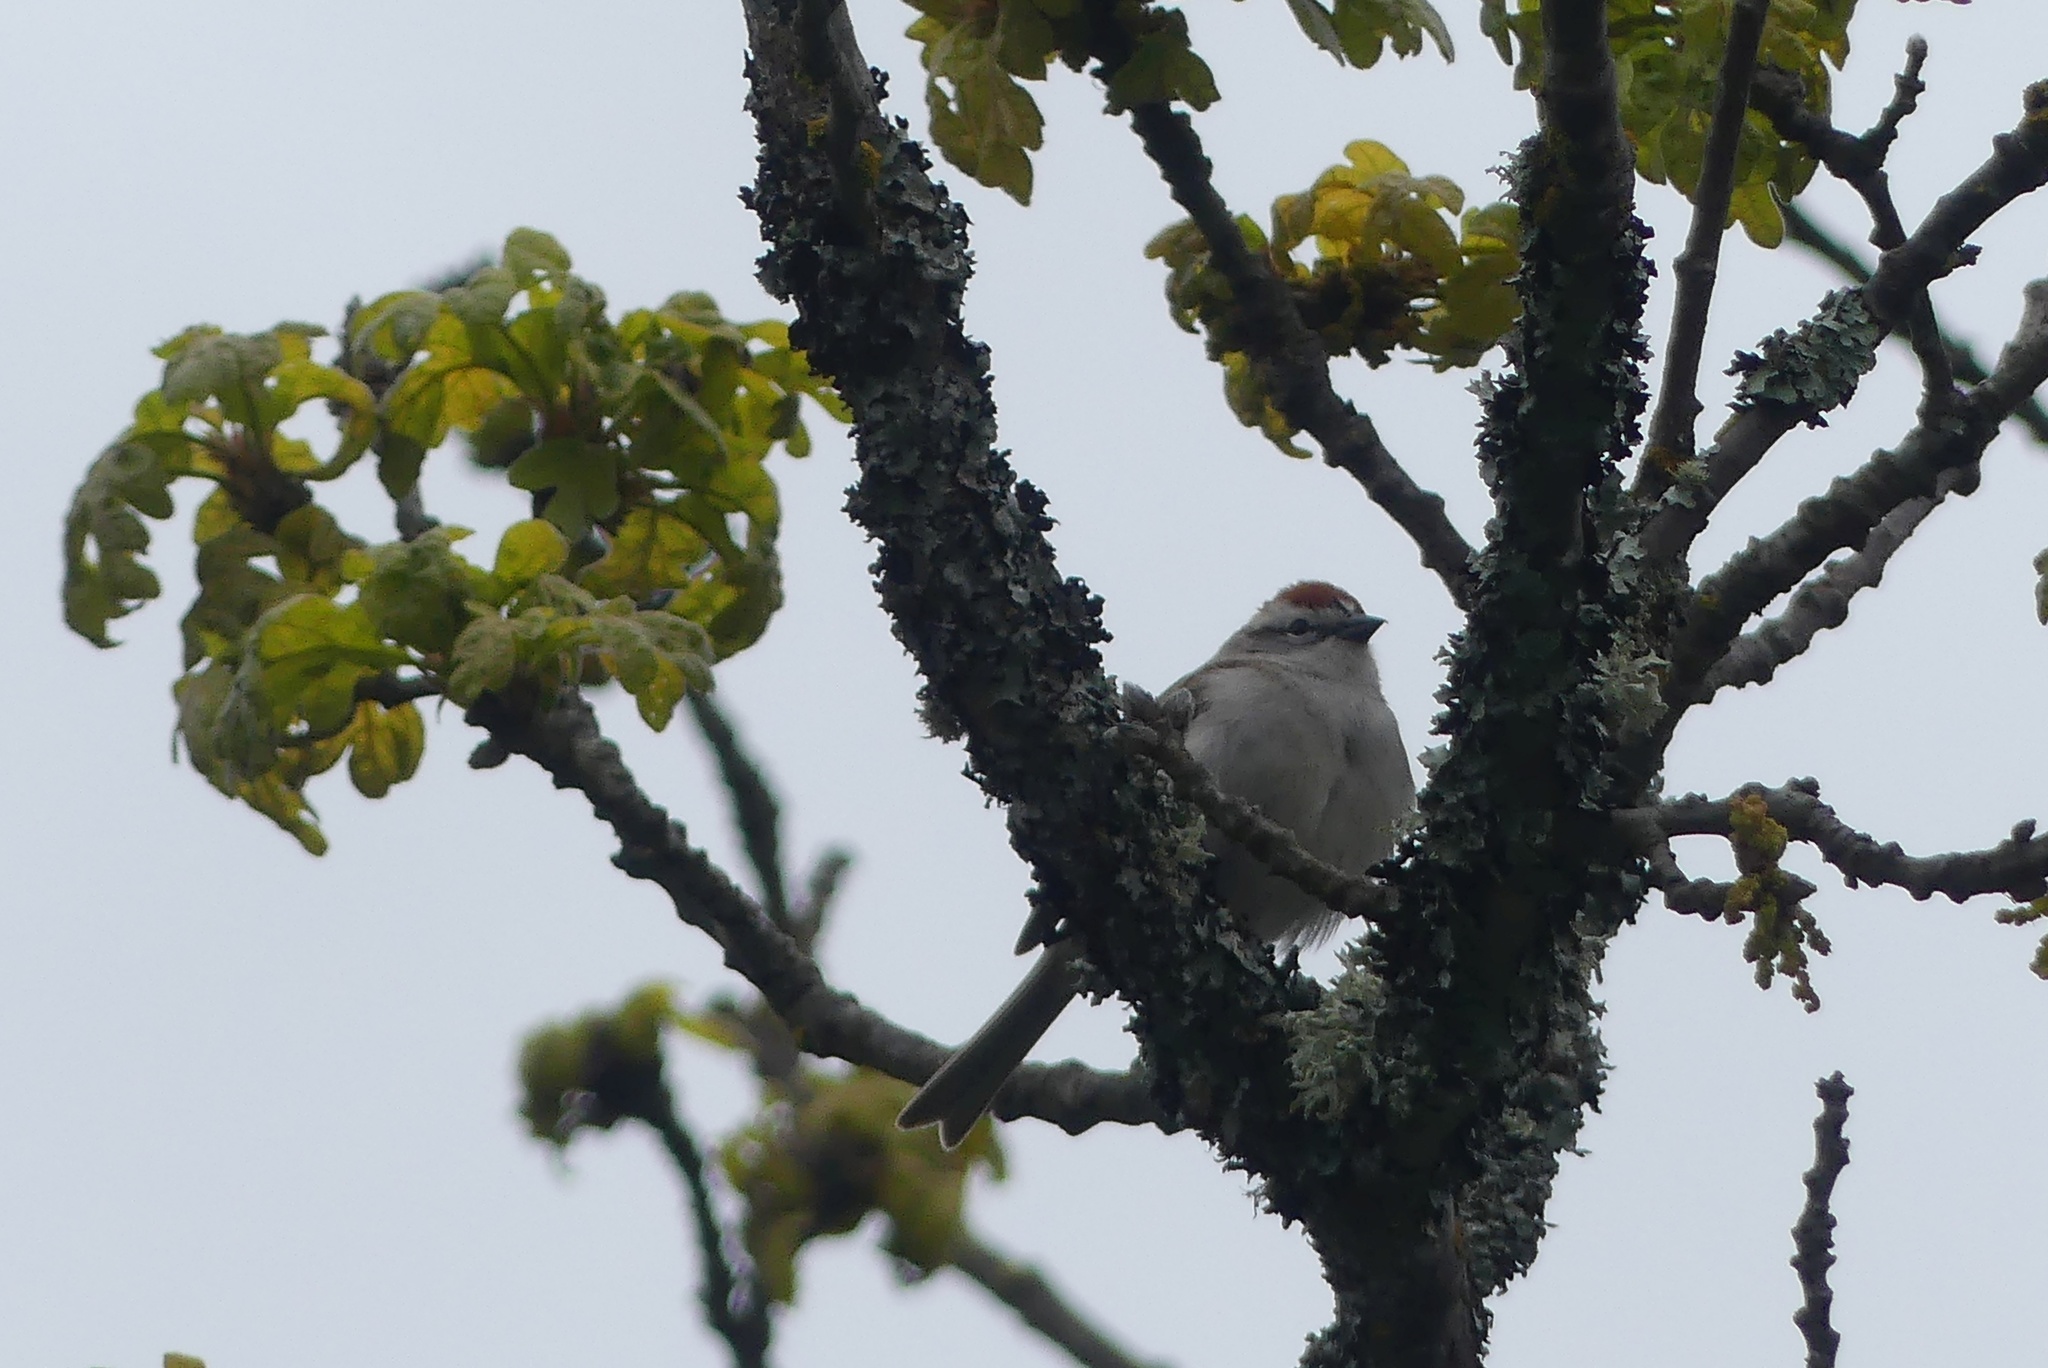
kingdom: Animalia
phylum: Chordata
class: Aves
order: Passeriformes
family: Passerellidae
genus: Spizella
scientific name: Spizella passerina
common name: Chipping sparrow
